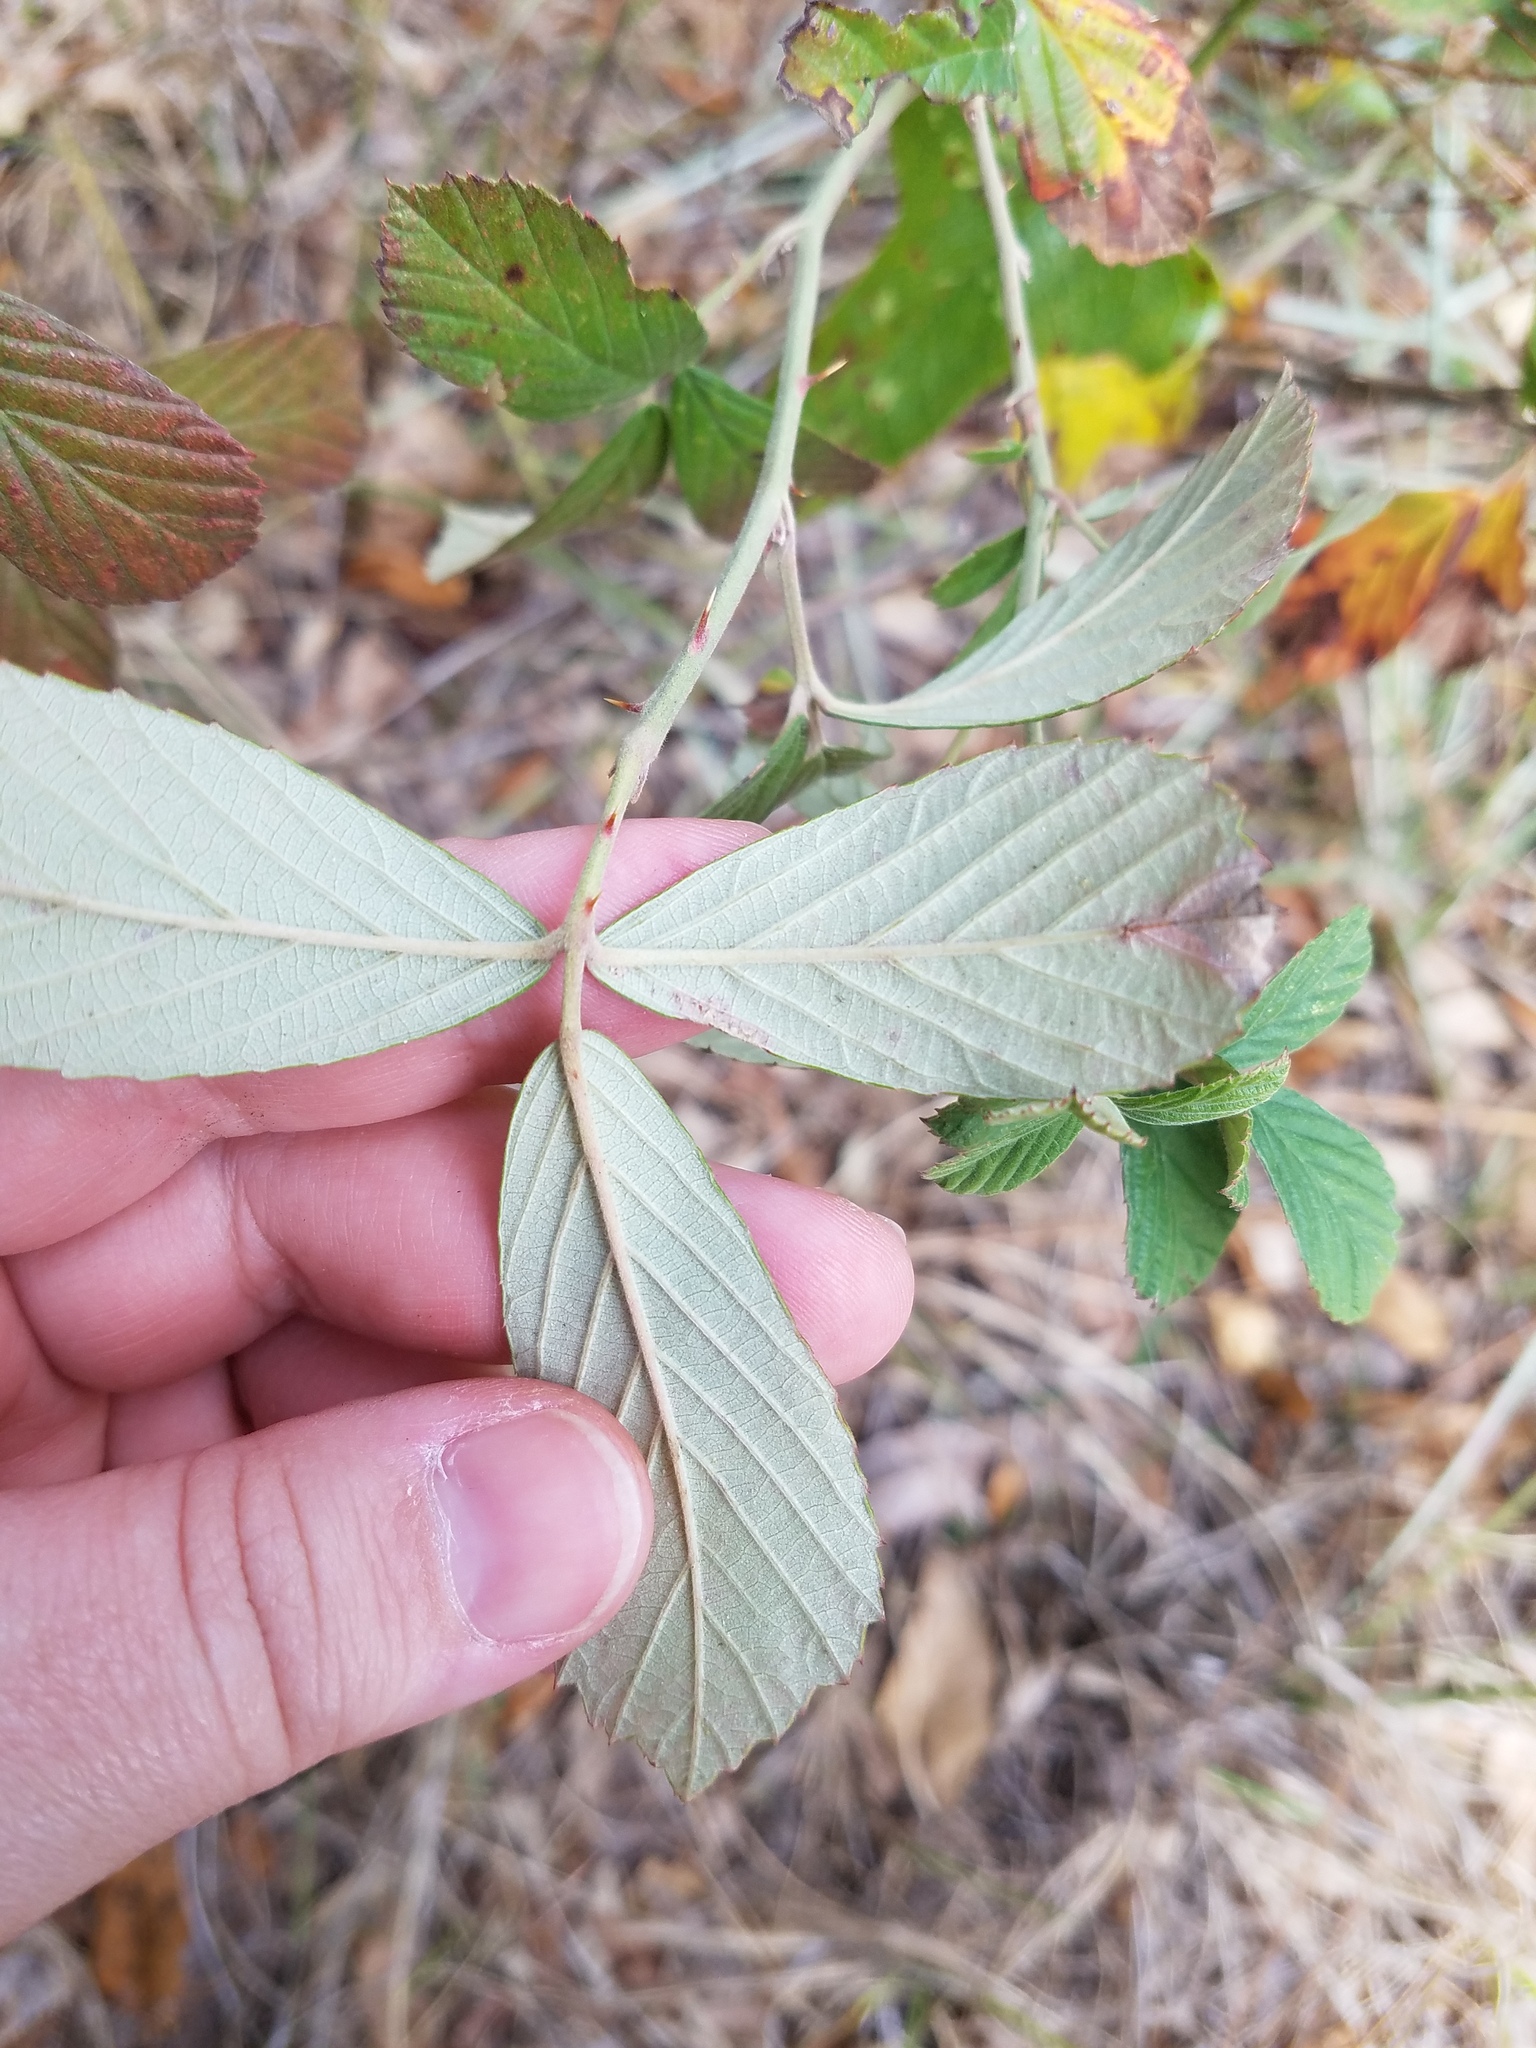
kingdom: Plantae
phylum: Tracheophyta
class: Magnoliopsida
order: Rosales
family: Rosaceae
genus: Rubus
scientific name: Rubus cuneifolius
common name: American bramble
